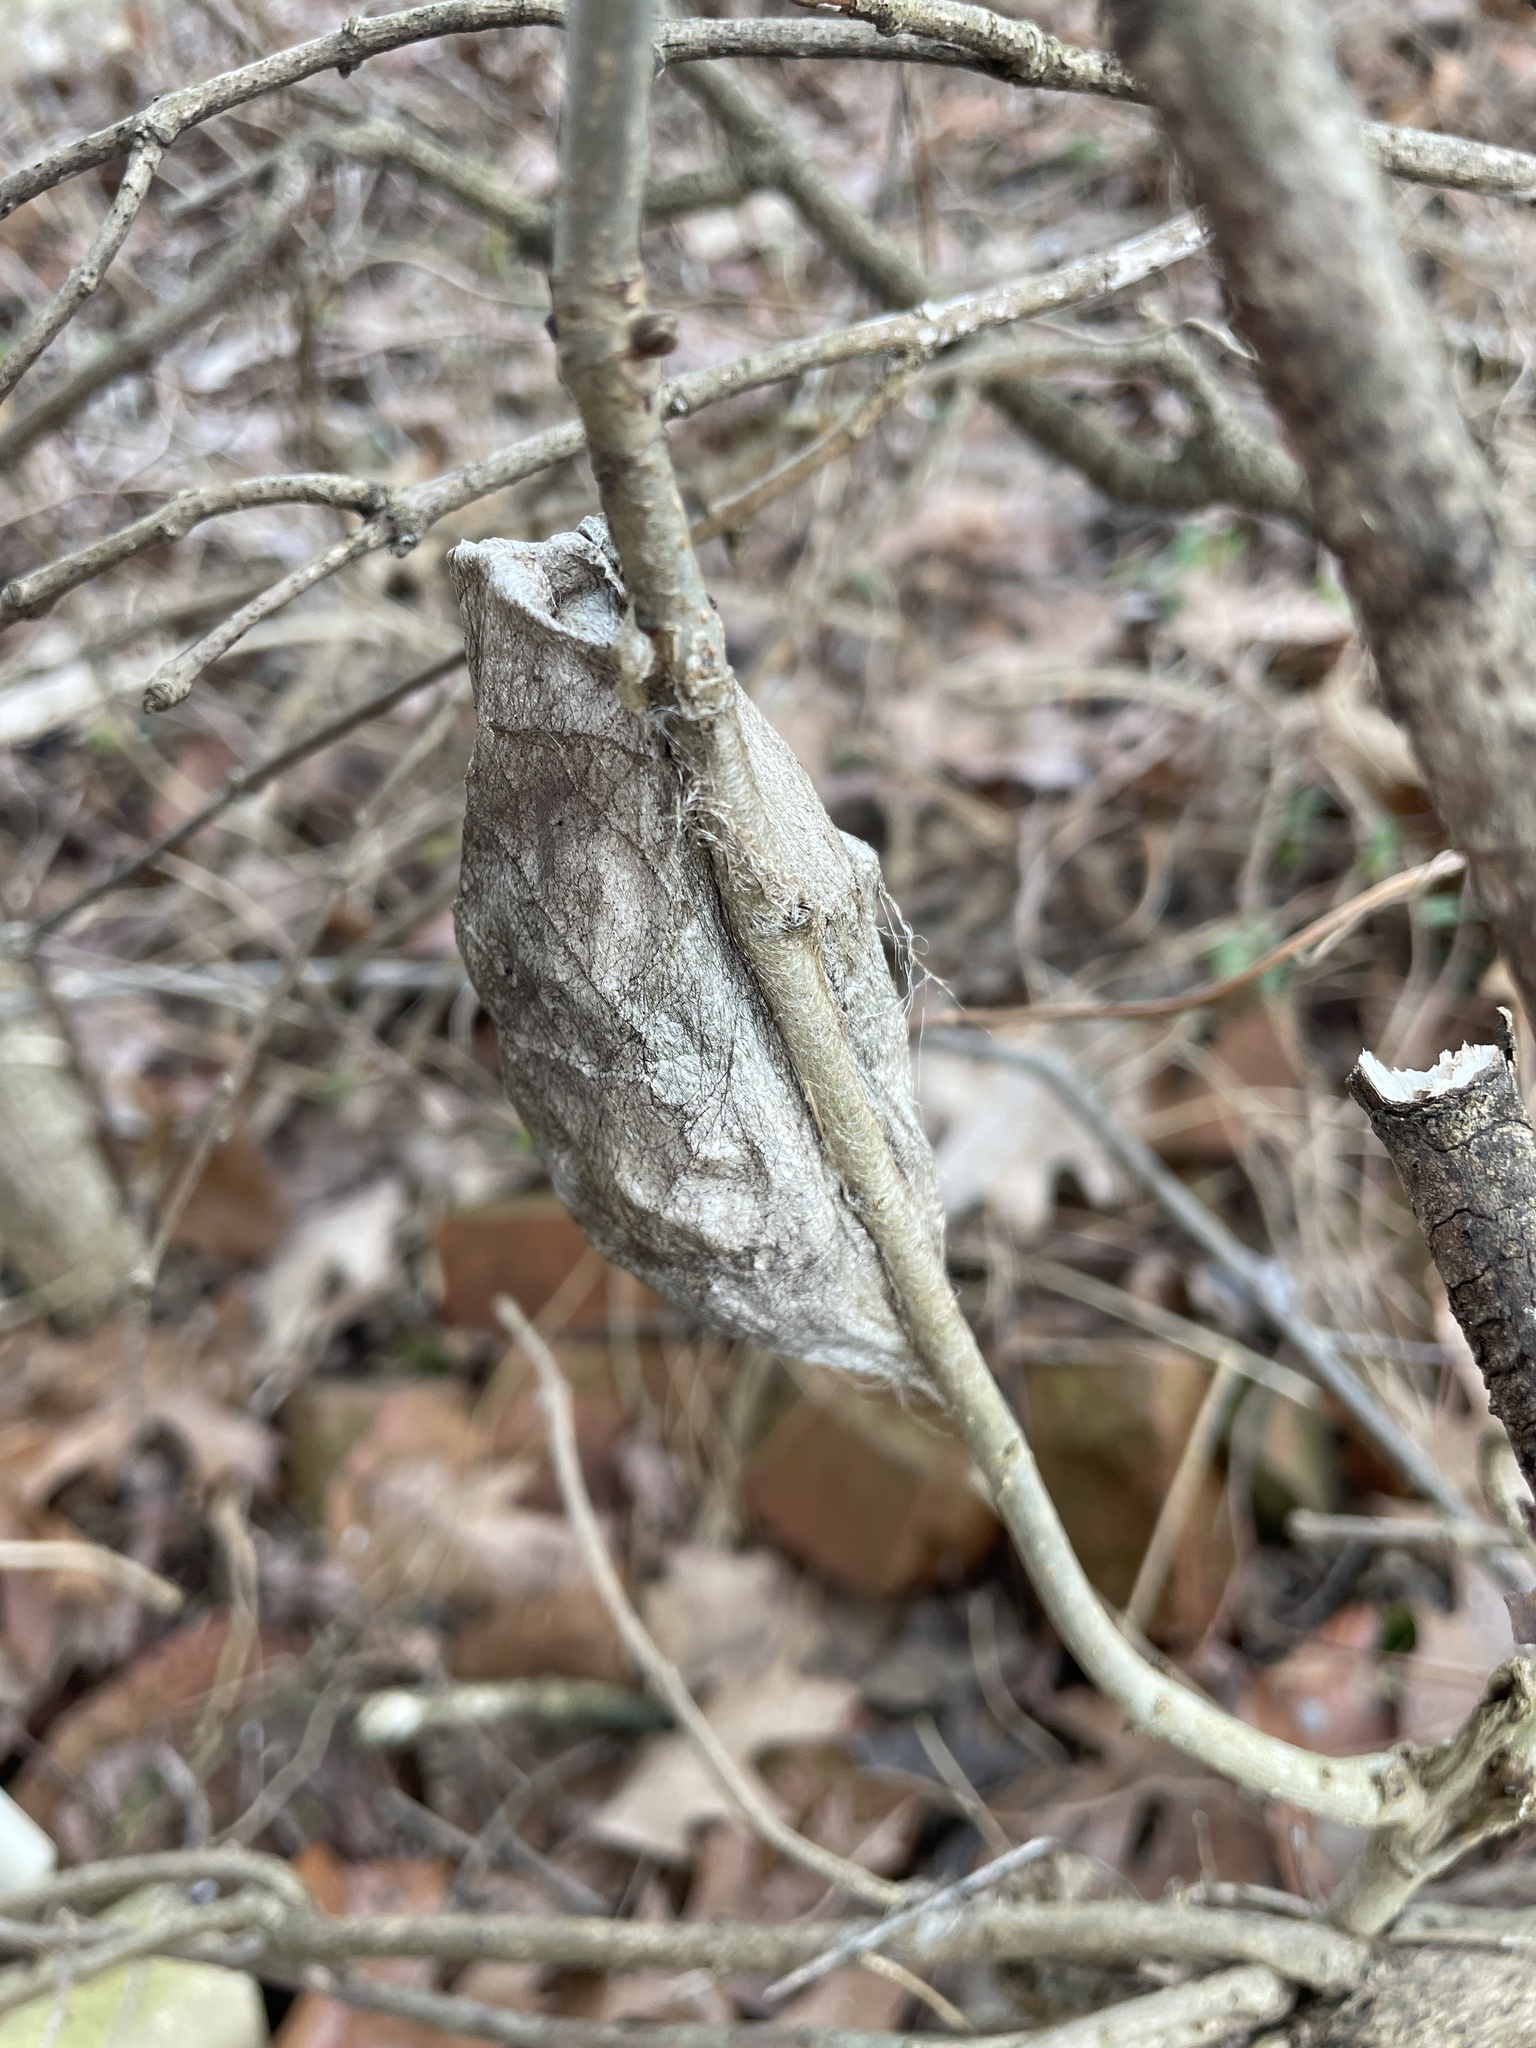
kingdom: Animalia
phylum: Arthropoda
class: Insecta
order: Lepidoptera
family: Saturniidae
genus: Hyalophora
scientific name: Hyalophora cecropia
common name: Cecropia silkmoth
